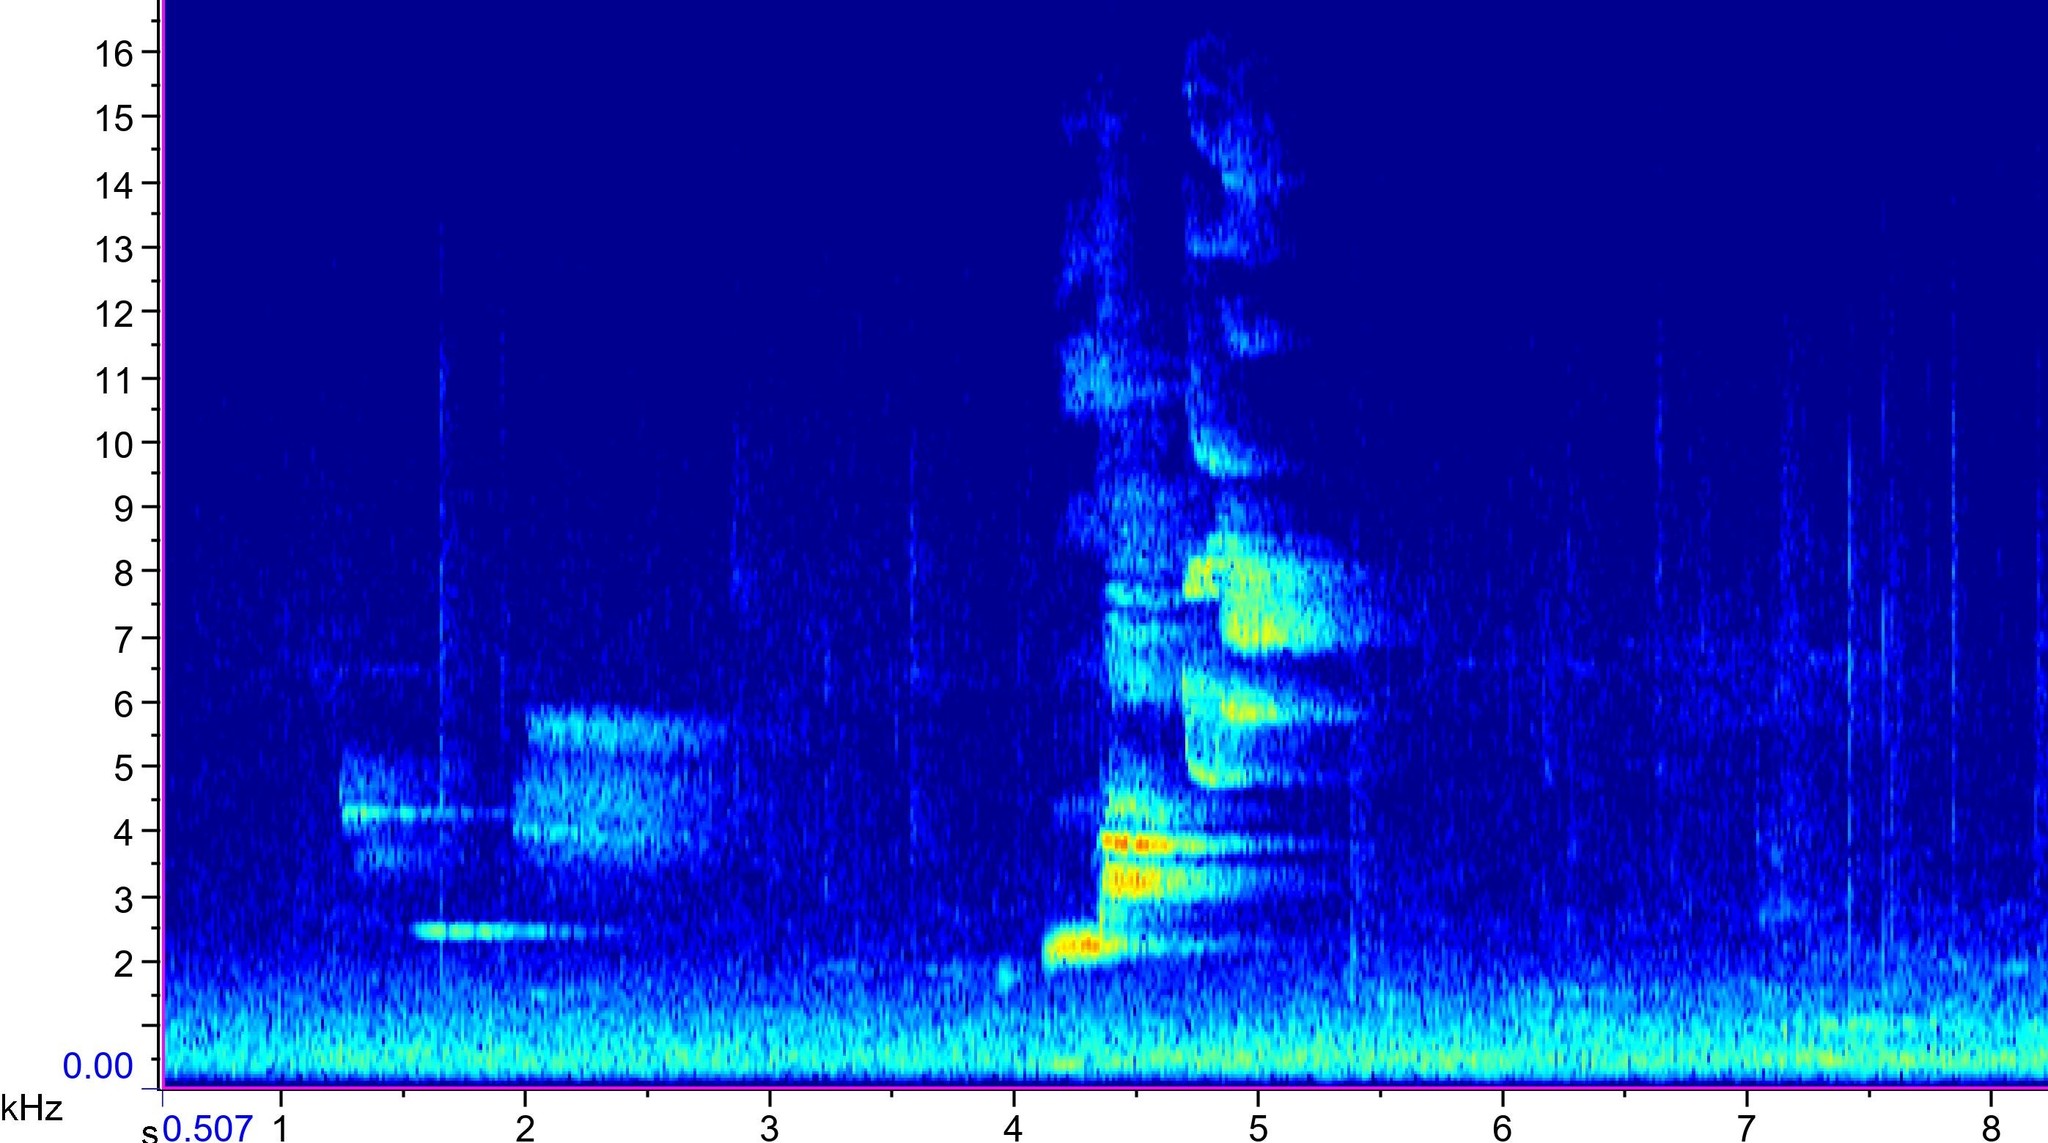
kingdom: Animalia
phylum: Chordata
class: Aves
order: Passeriformes
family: Turdidae
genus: Hylocichla
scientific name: Hylocichla mustelina
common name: Wood thrush
